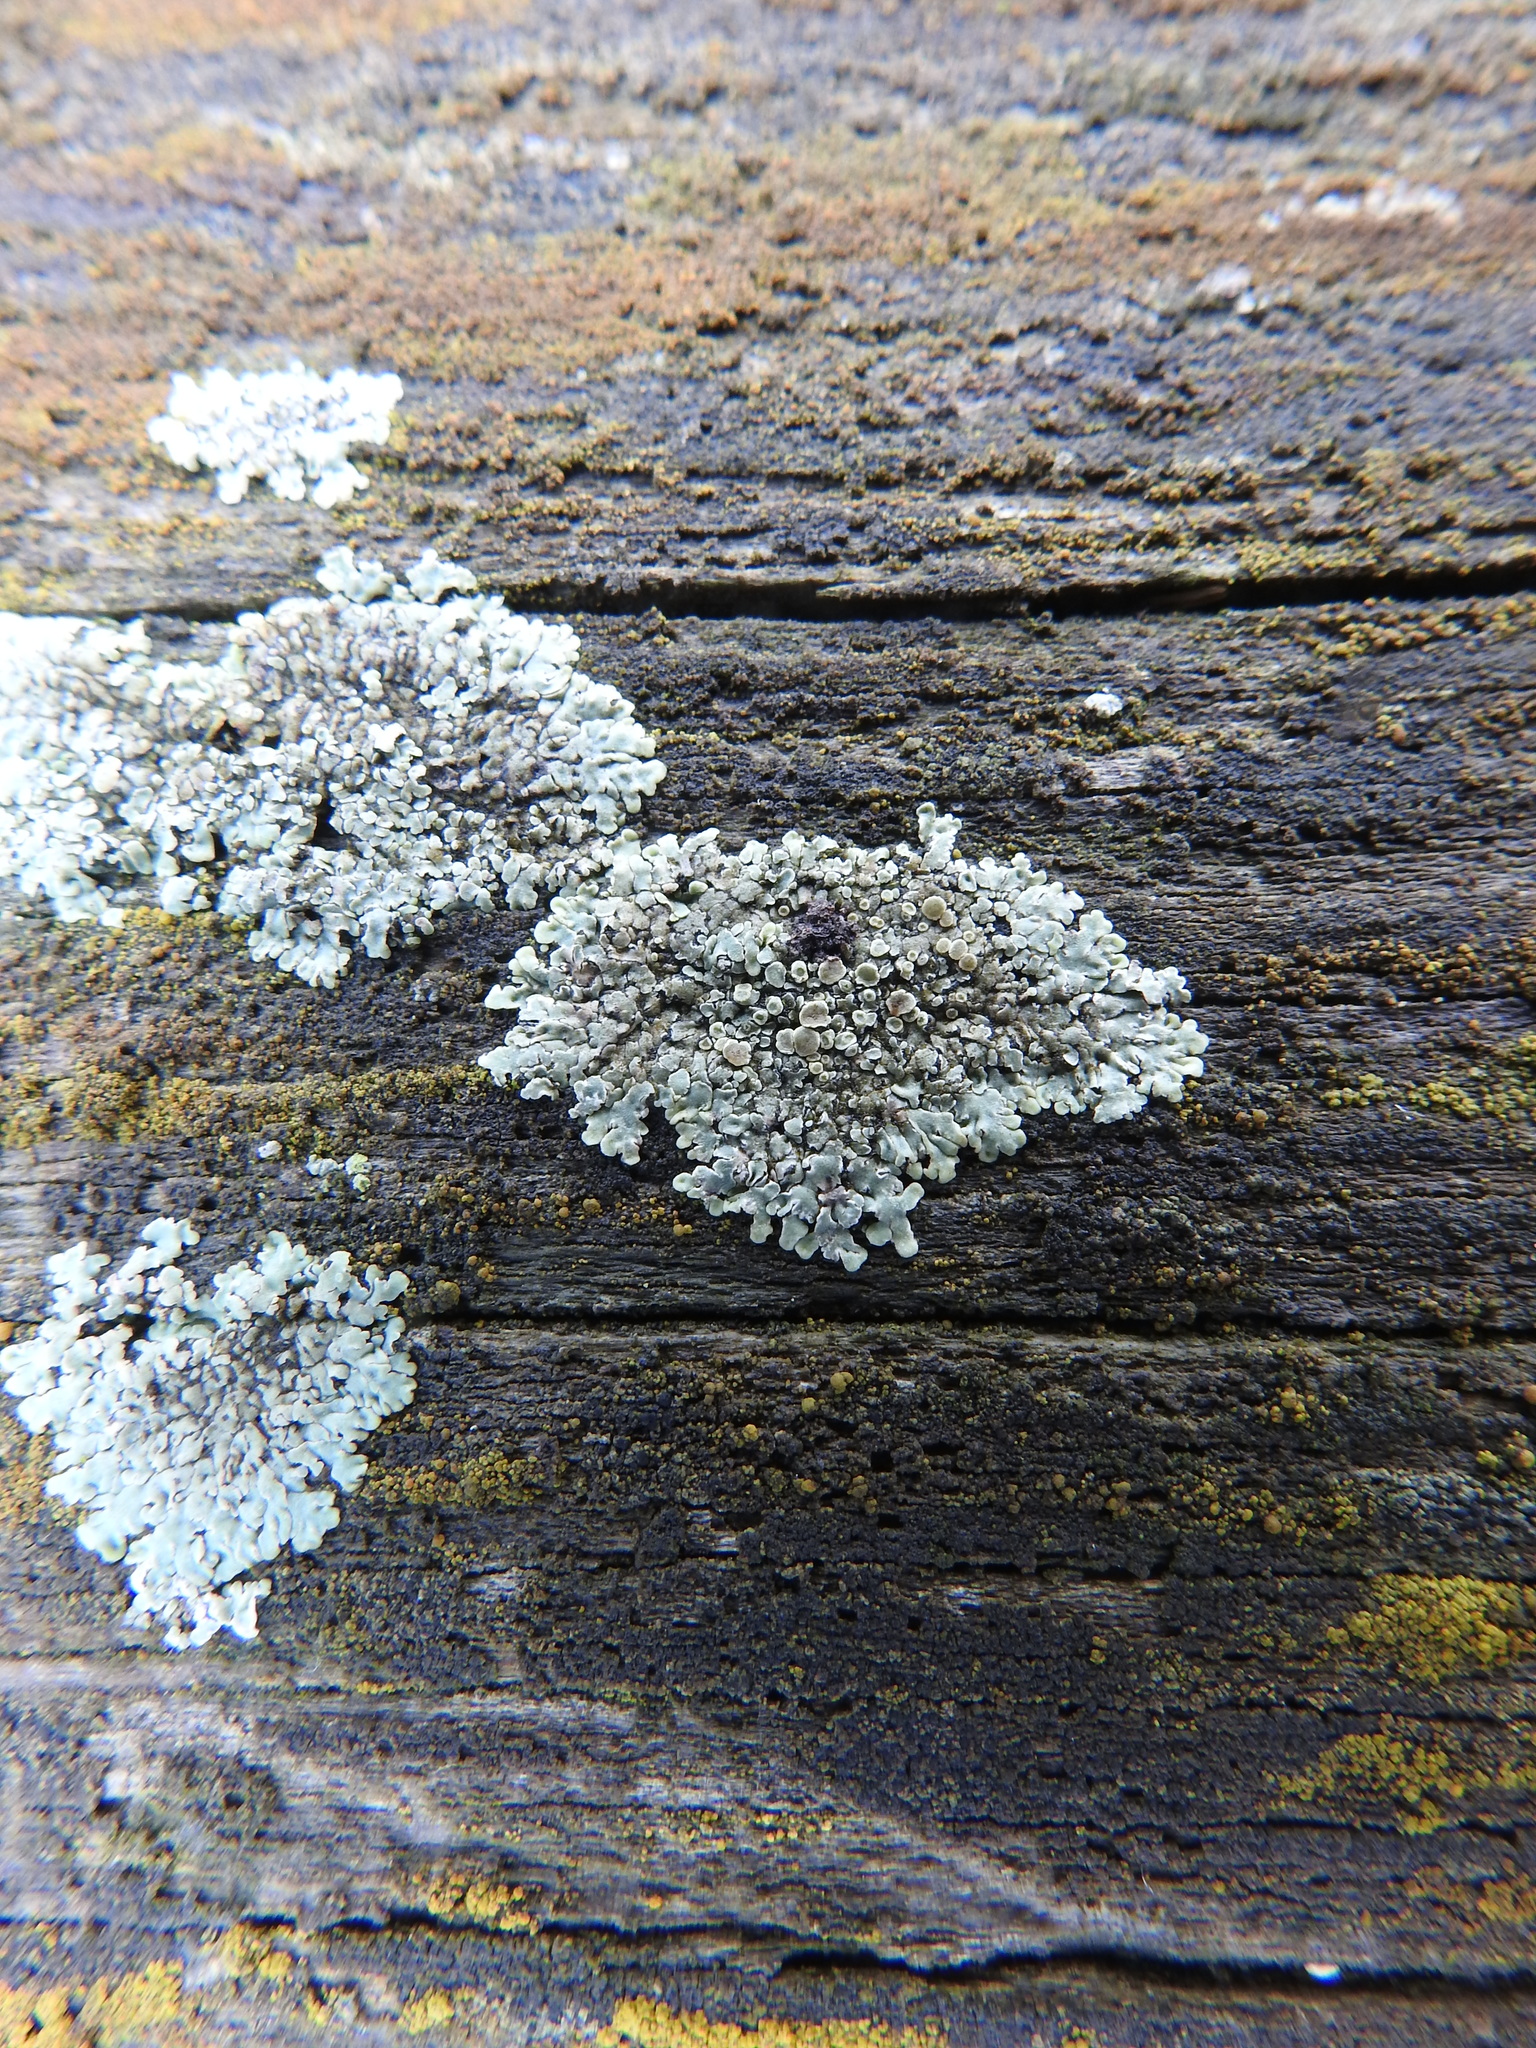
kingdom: Fungi
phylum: Ascomycota
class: Lecanoromycetes
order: Lecanorales
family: Lecanoraceae
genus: Protoparmeliopsis
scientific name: Protoparmeliopsis muralis
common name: Stonewall rim lichen
